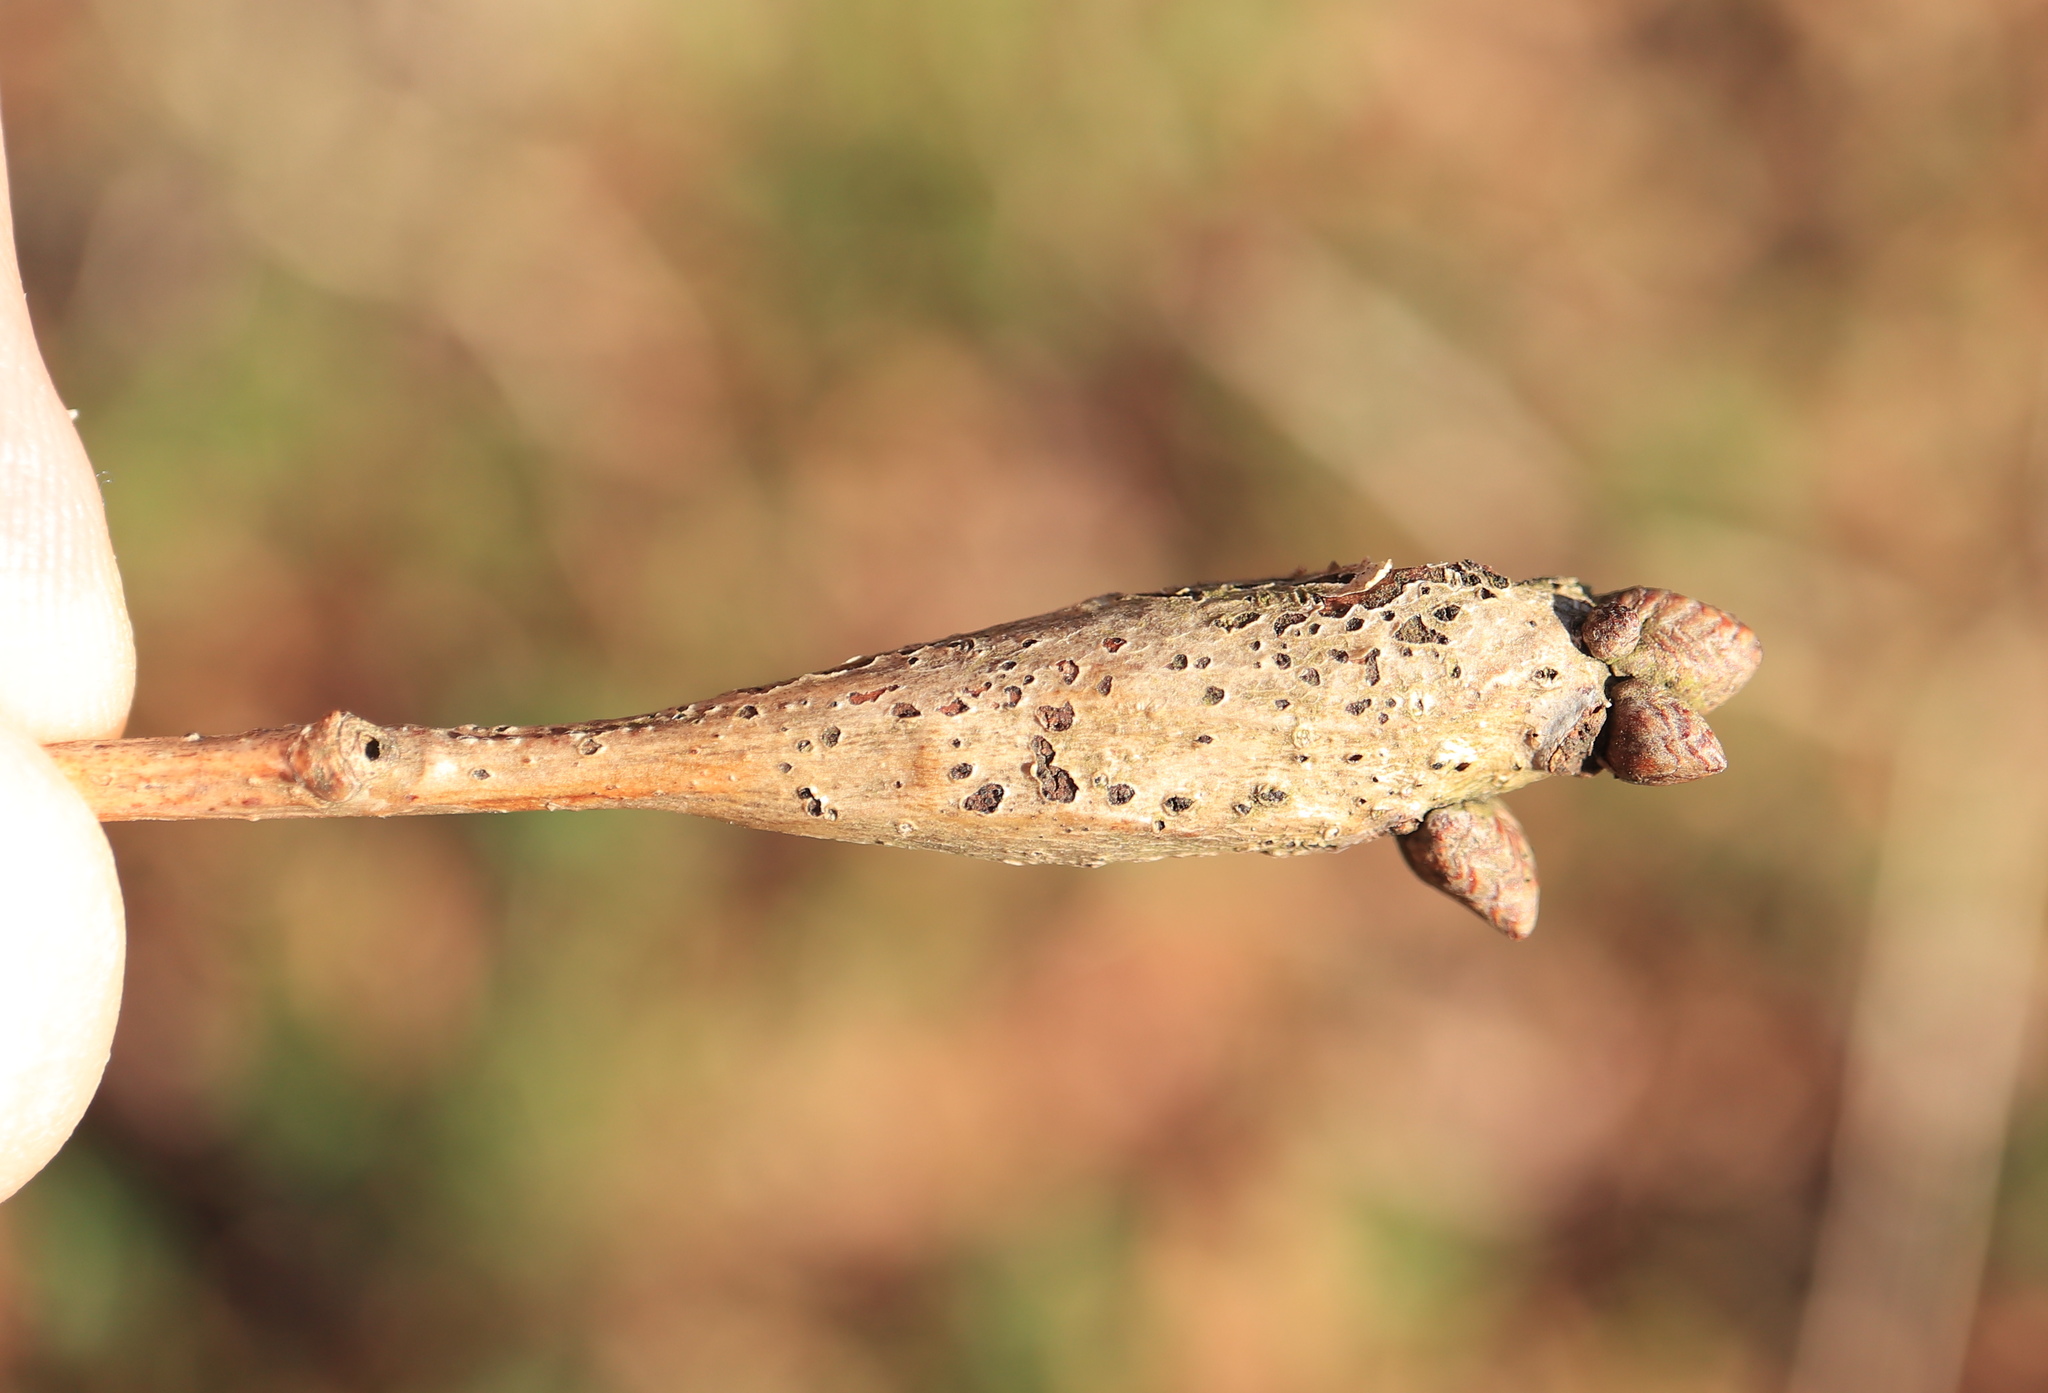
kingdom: Animalia
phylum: Arthropoda
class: Insecta
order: Hymenoptera
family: Cynipidae
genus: Neuroterus
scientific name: Neuroterus quercusbaccarum
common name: Common spangle gall
